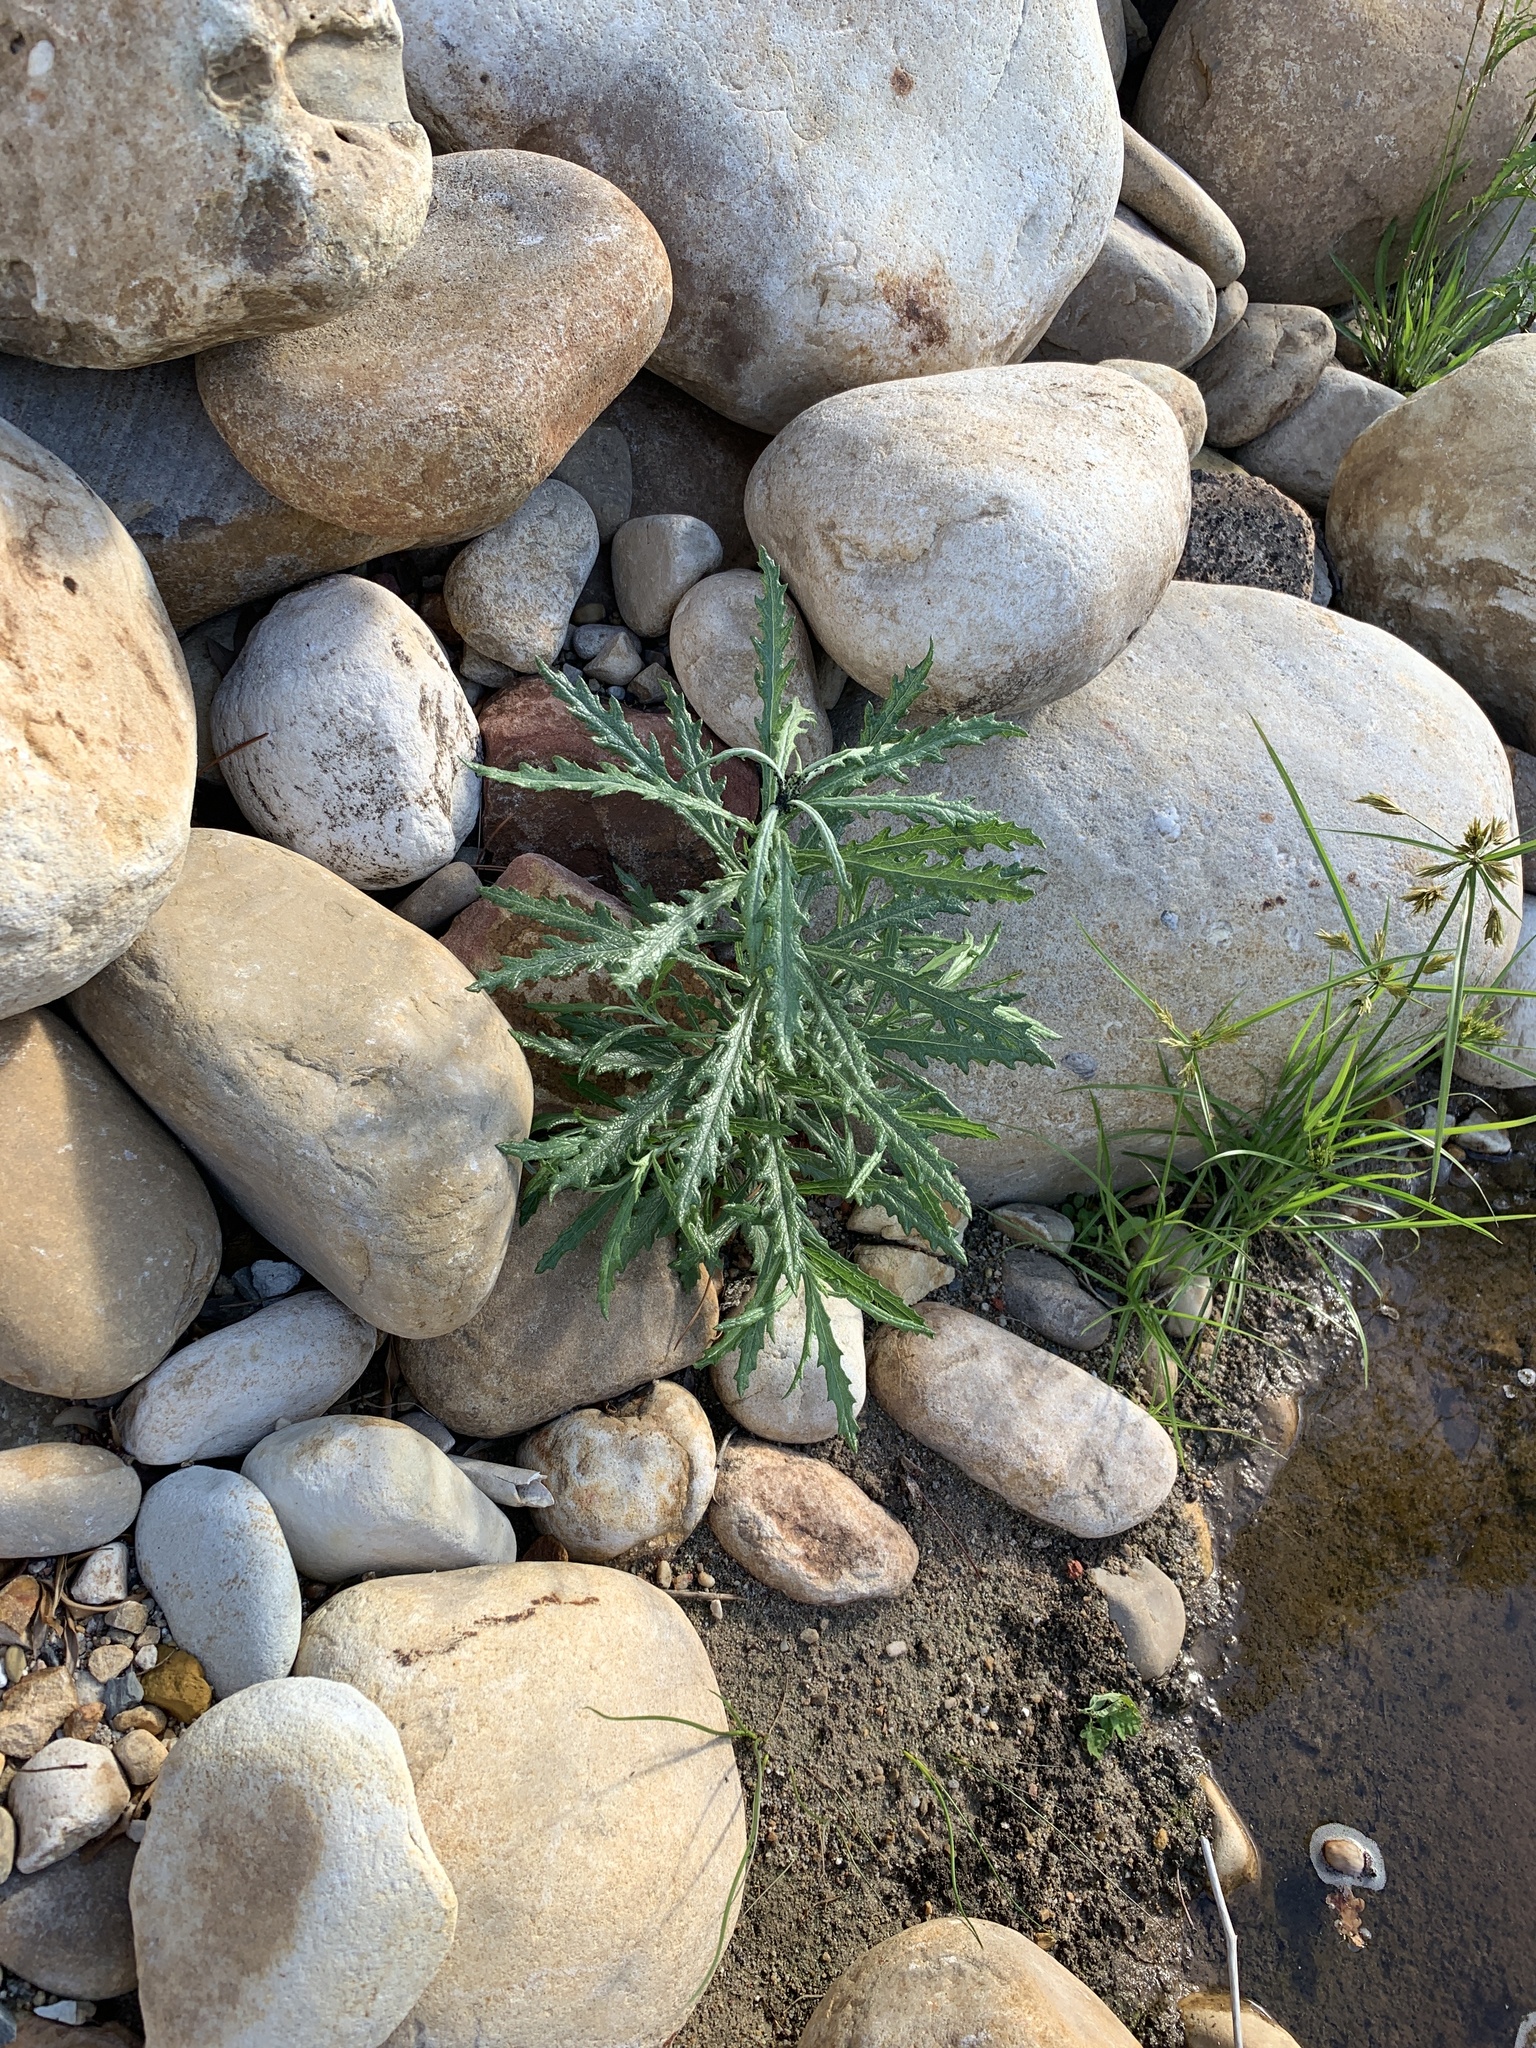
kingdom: Plantae
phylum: Tracheophyta
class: Magnoliopsida
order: Asterales
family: Asteraceae
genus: Senecio
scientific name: Senecio pterophorus
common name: Shoddy ragwort
